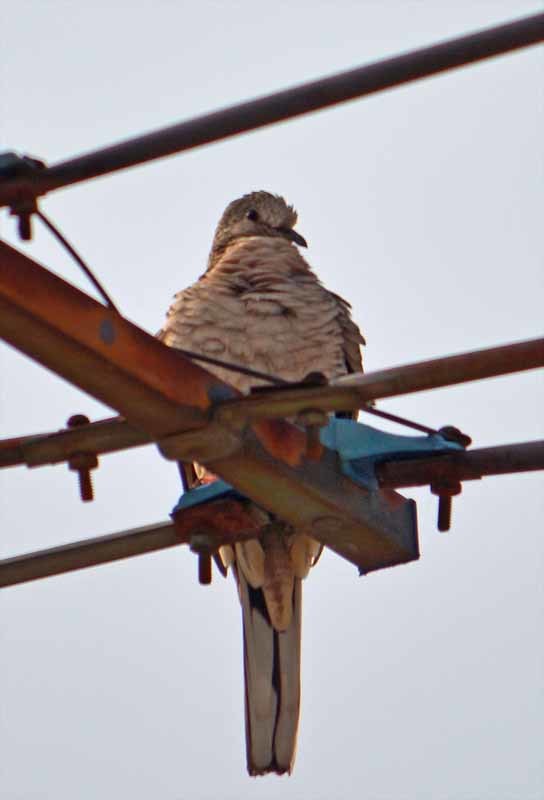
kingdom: Animalia
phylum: Chordata
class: Aves
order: Columbiformes
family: Columbidae
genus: Columbina
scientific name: Columbina inca
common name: Inca dove
